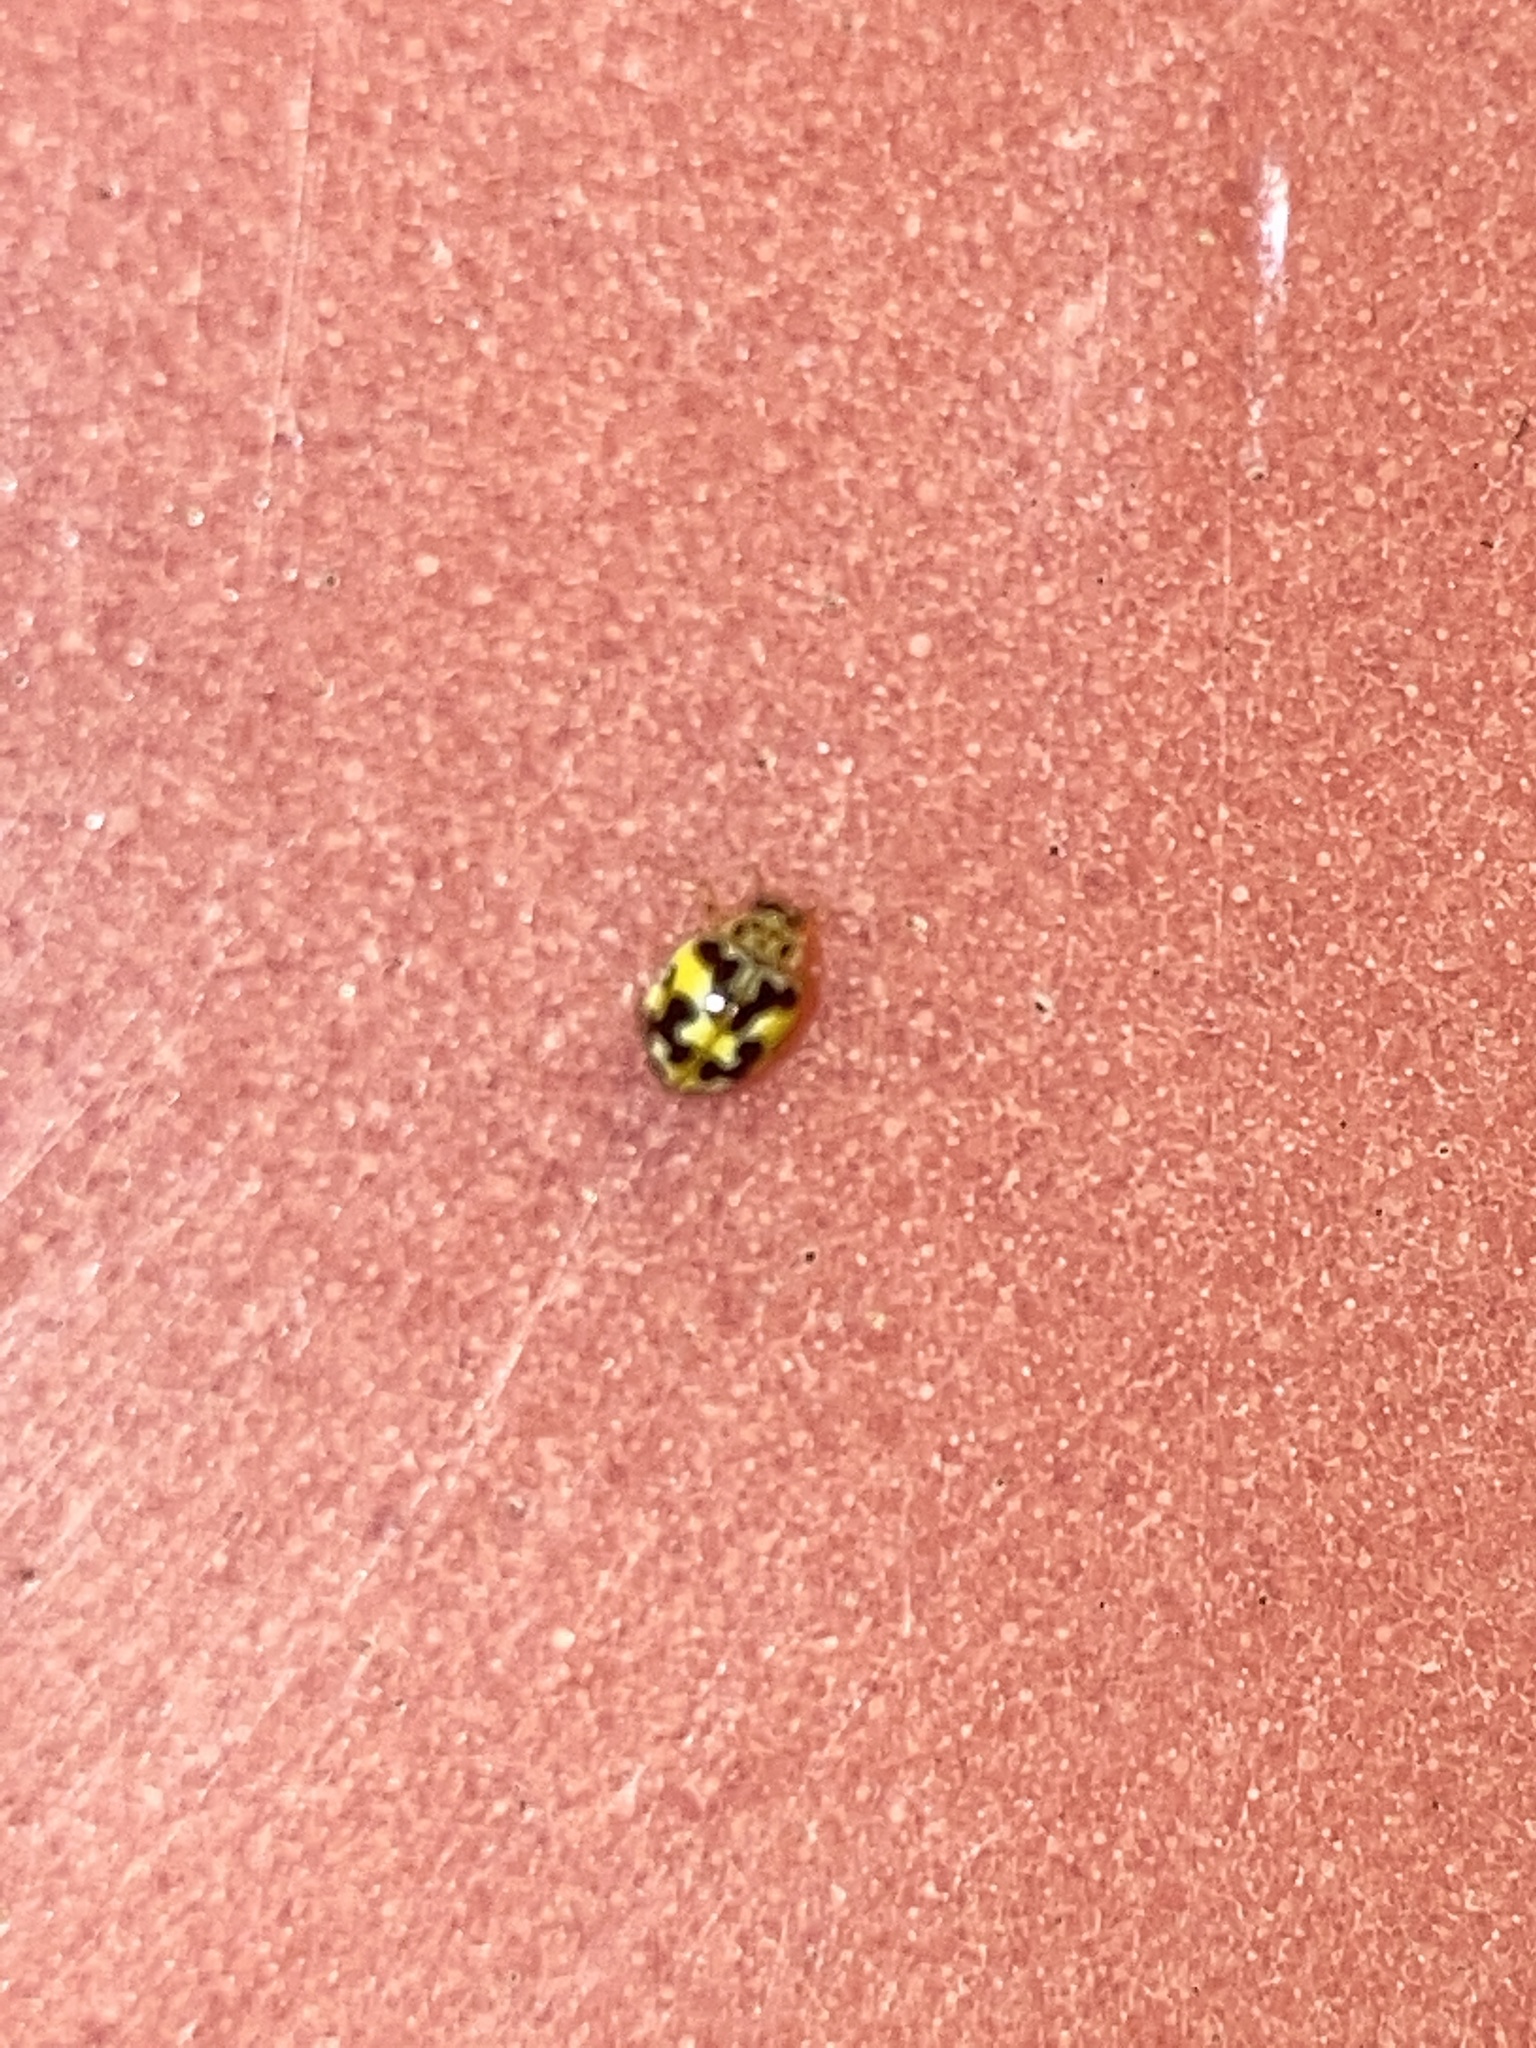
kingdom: Animalia
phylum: Arthropoda
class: Insecta
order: Coleoptera
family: Coccinellidae
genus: Psyllobora
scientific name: Psyllobora vigintimaculata
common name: Ladybird beetle
